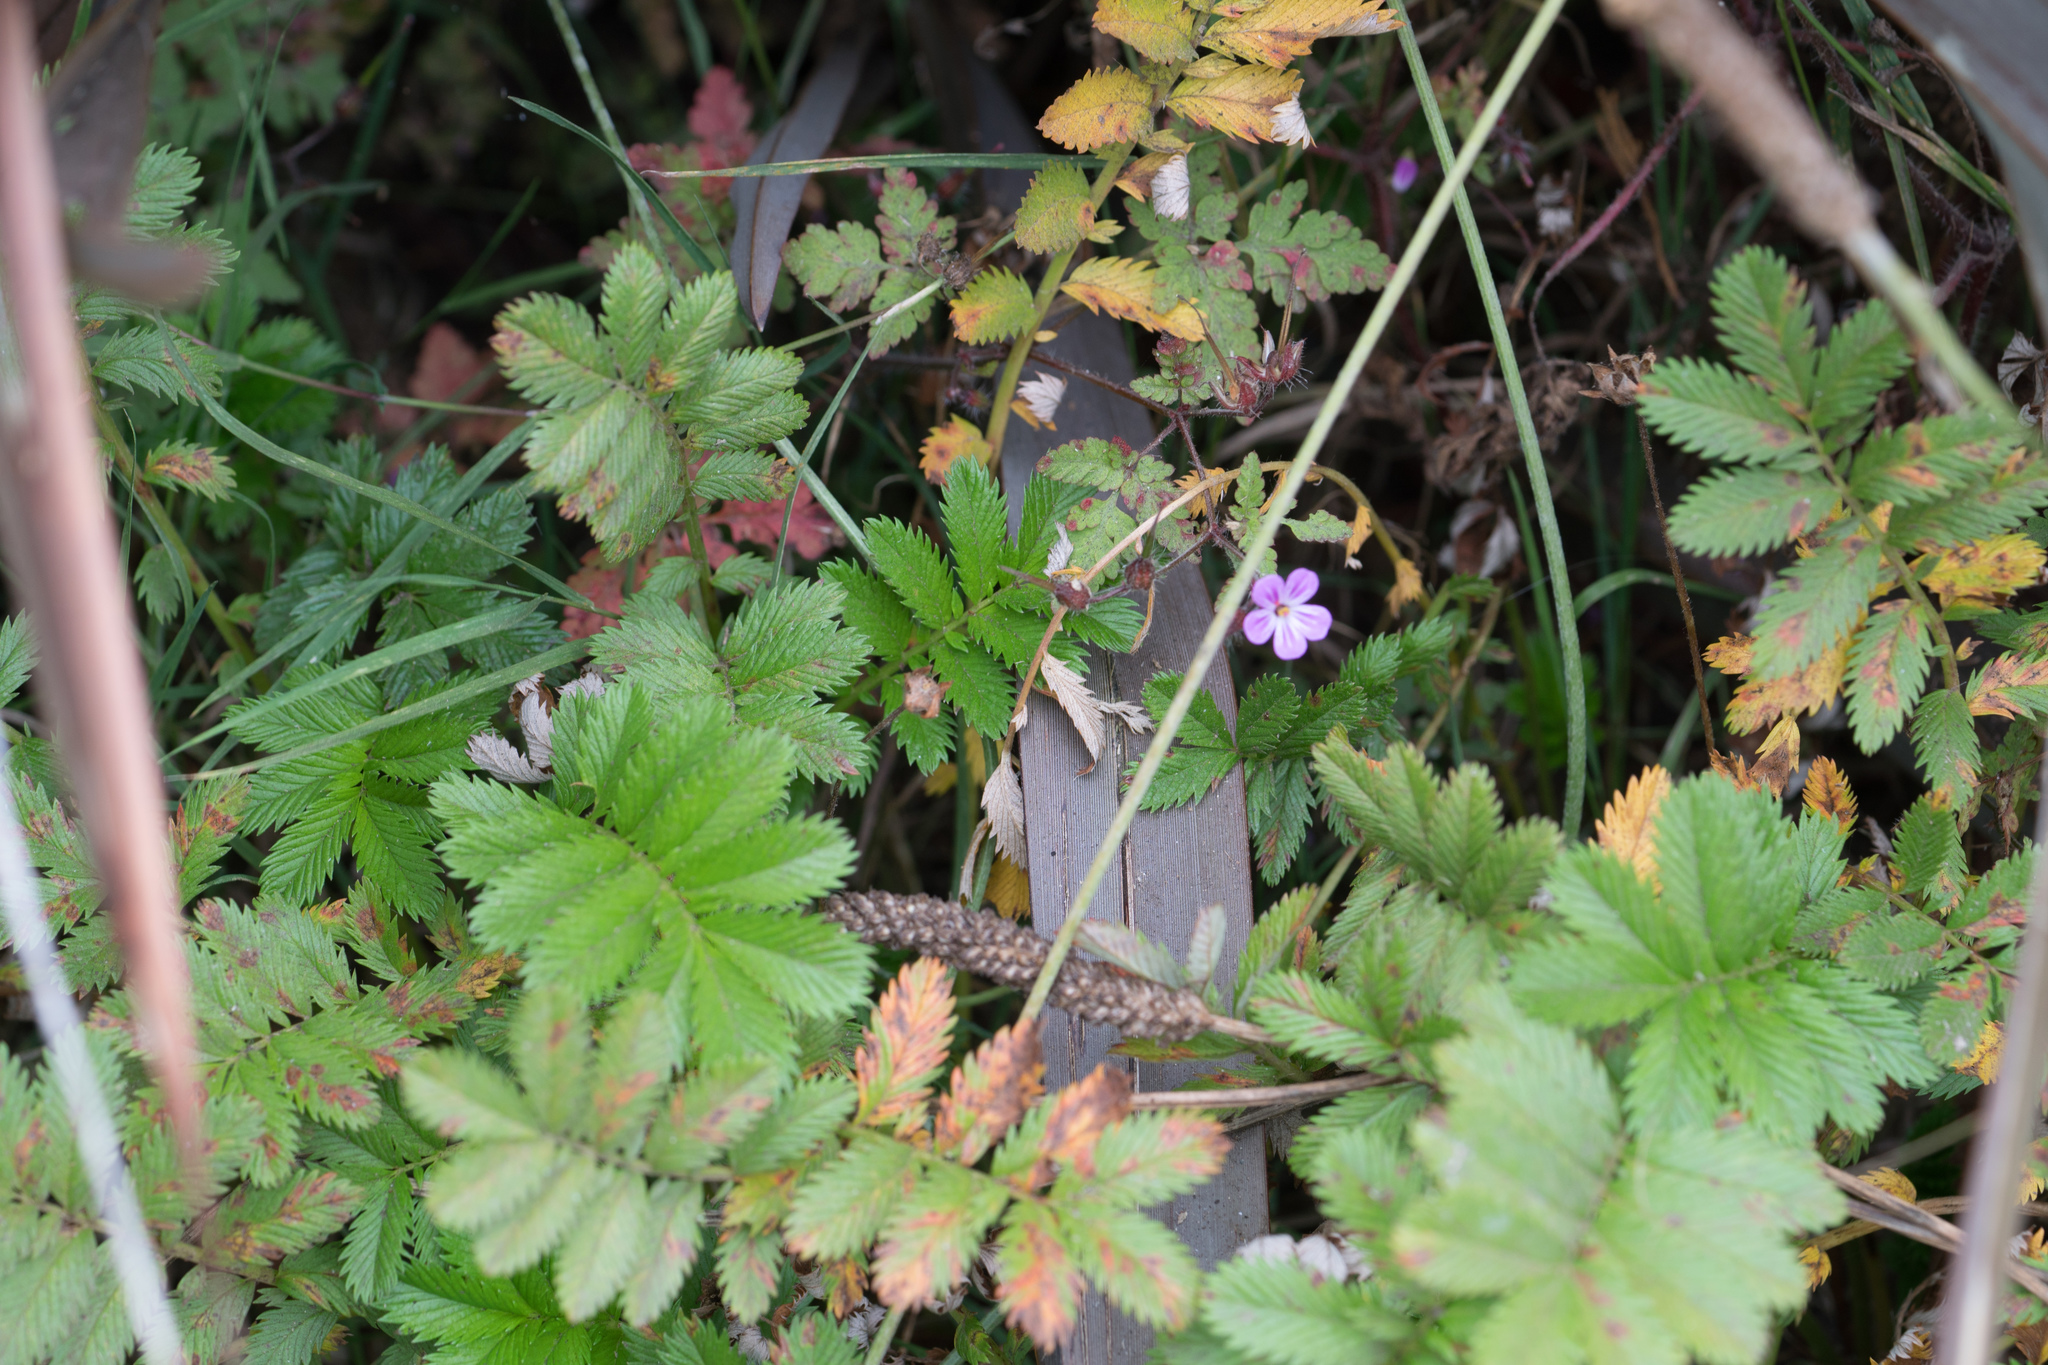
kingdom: Plantae
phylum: Tracheophyta
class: Magnoliopsida
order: Geraniales
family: Geraniaceae
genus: Geranium
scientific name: Geranium robertianum
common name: Herb-robert
